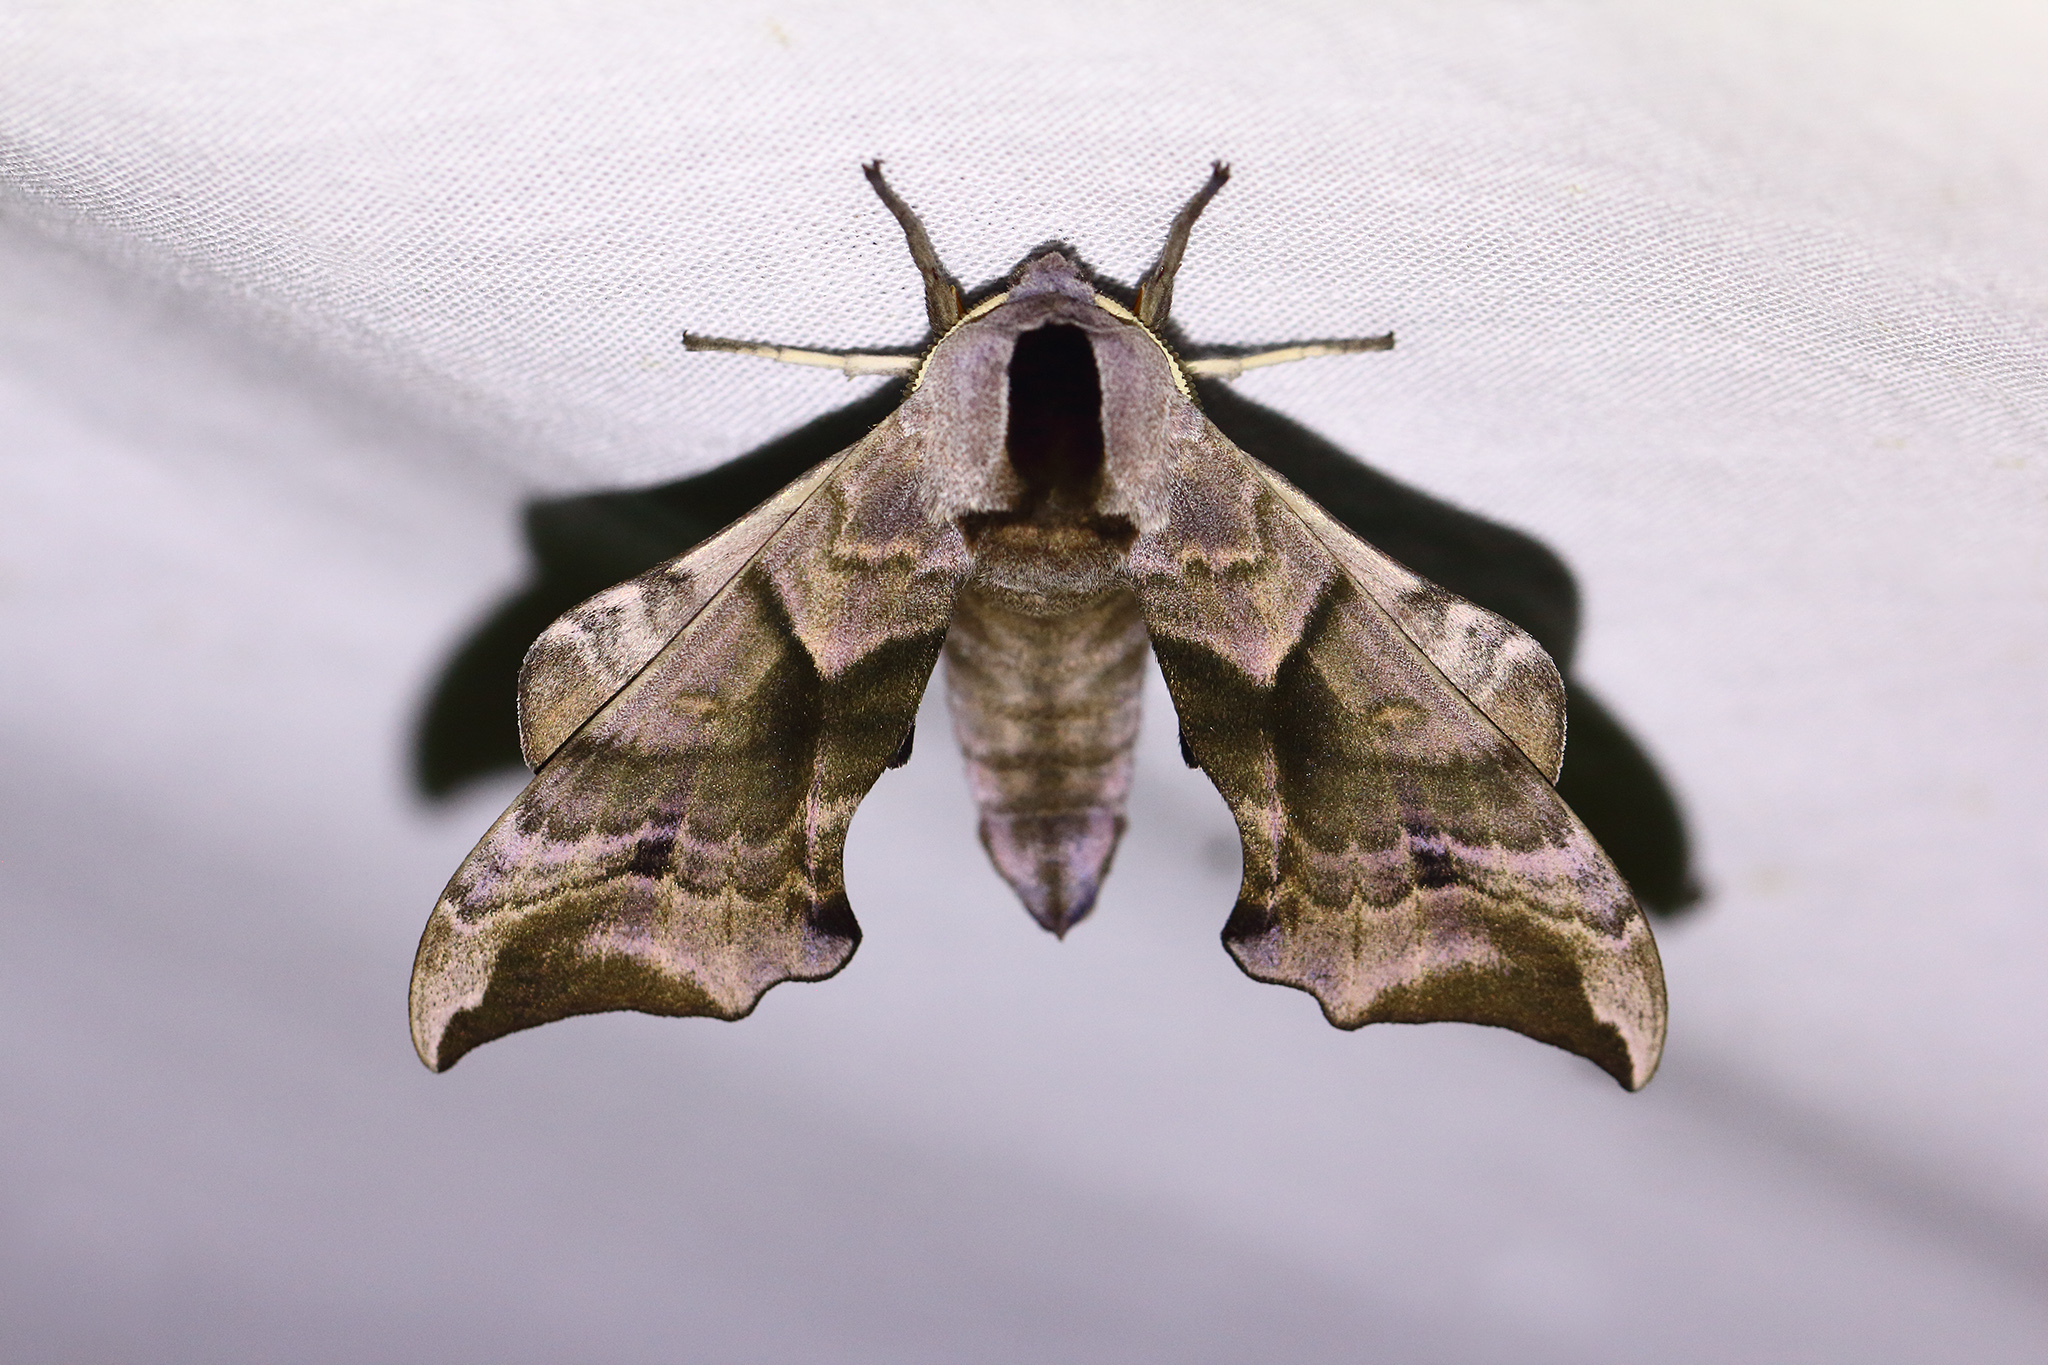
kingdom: Animalia
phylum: Arthropoda
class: Insecta
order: Lepidoptera
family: Sphingidae
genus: Smerinthus
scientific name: Smerinthus ocellata
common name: Eyed hawk-moth
